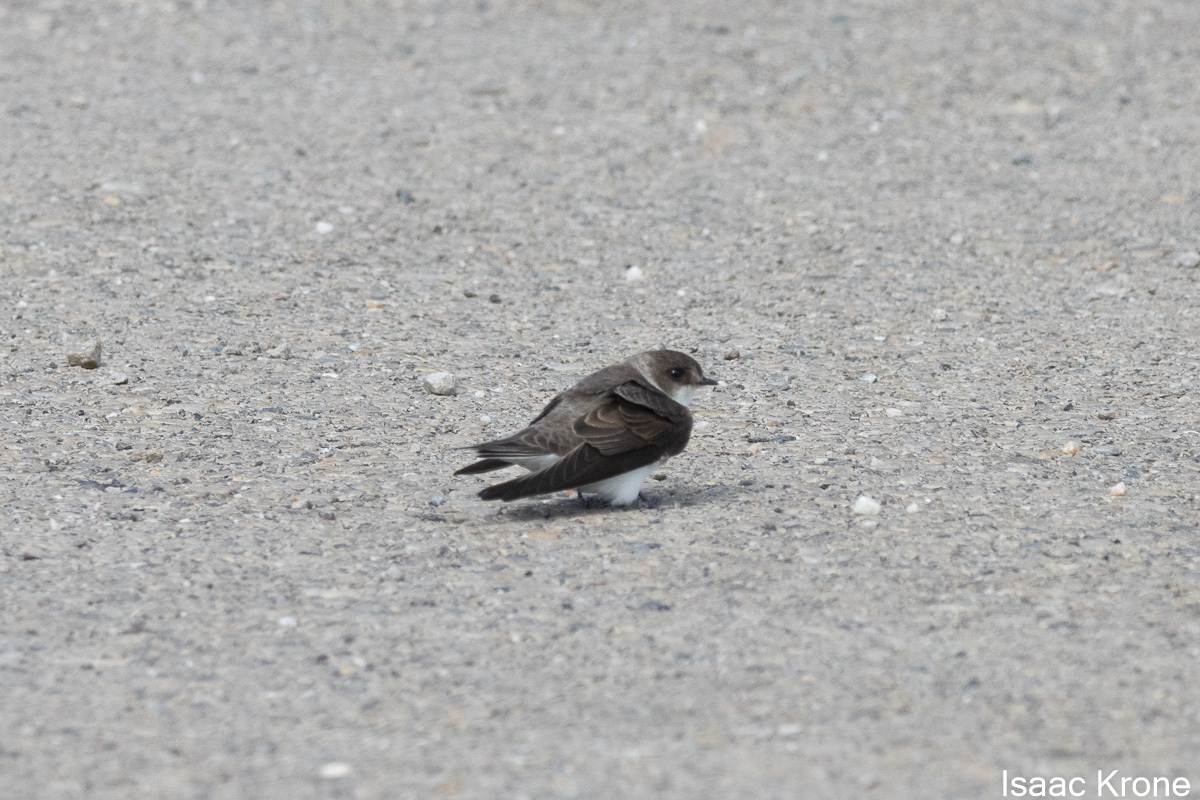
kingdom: Animalia
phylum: Chordata
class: Aves
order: Passeriformes
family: Hirundinidae
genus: Riparia
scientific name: Riparia riparia
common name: Sand martin
